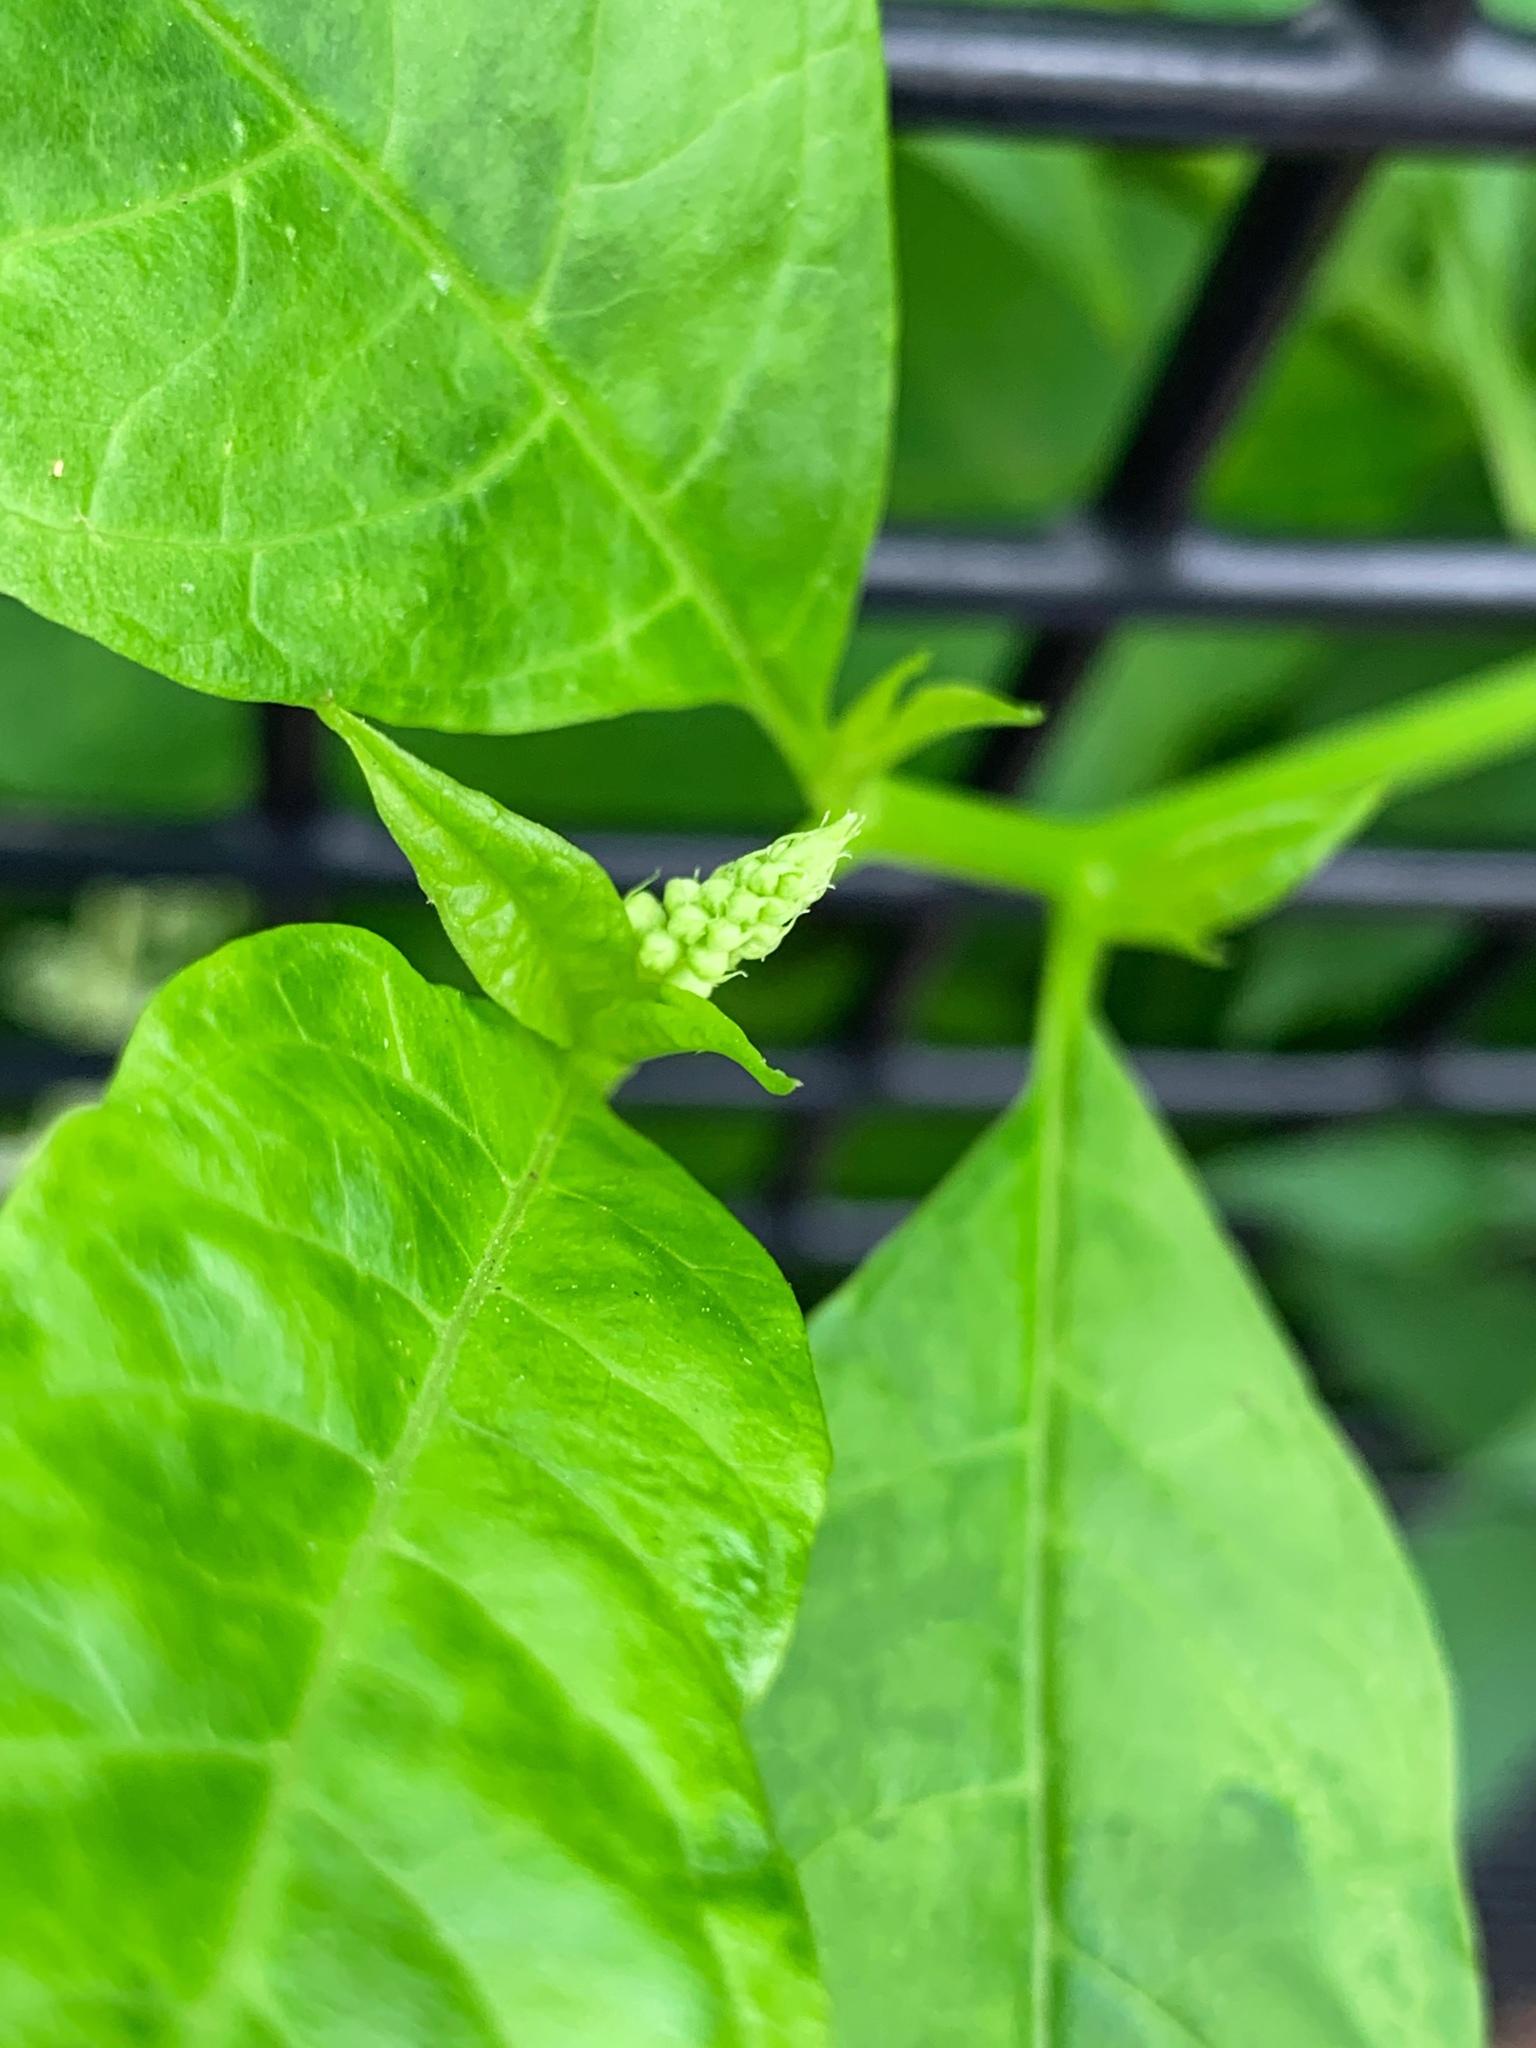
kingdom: Plantae
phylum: Tracheophyta
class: Magnoliopsida
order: Caryophyllales
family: Phytolaccaceae
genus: Phytolacca
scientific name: Phytolacca americana
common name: American pokeweed
